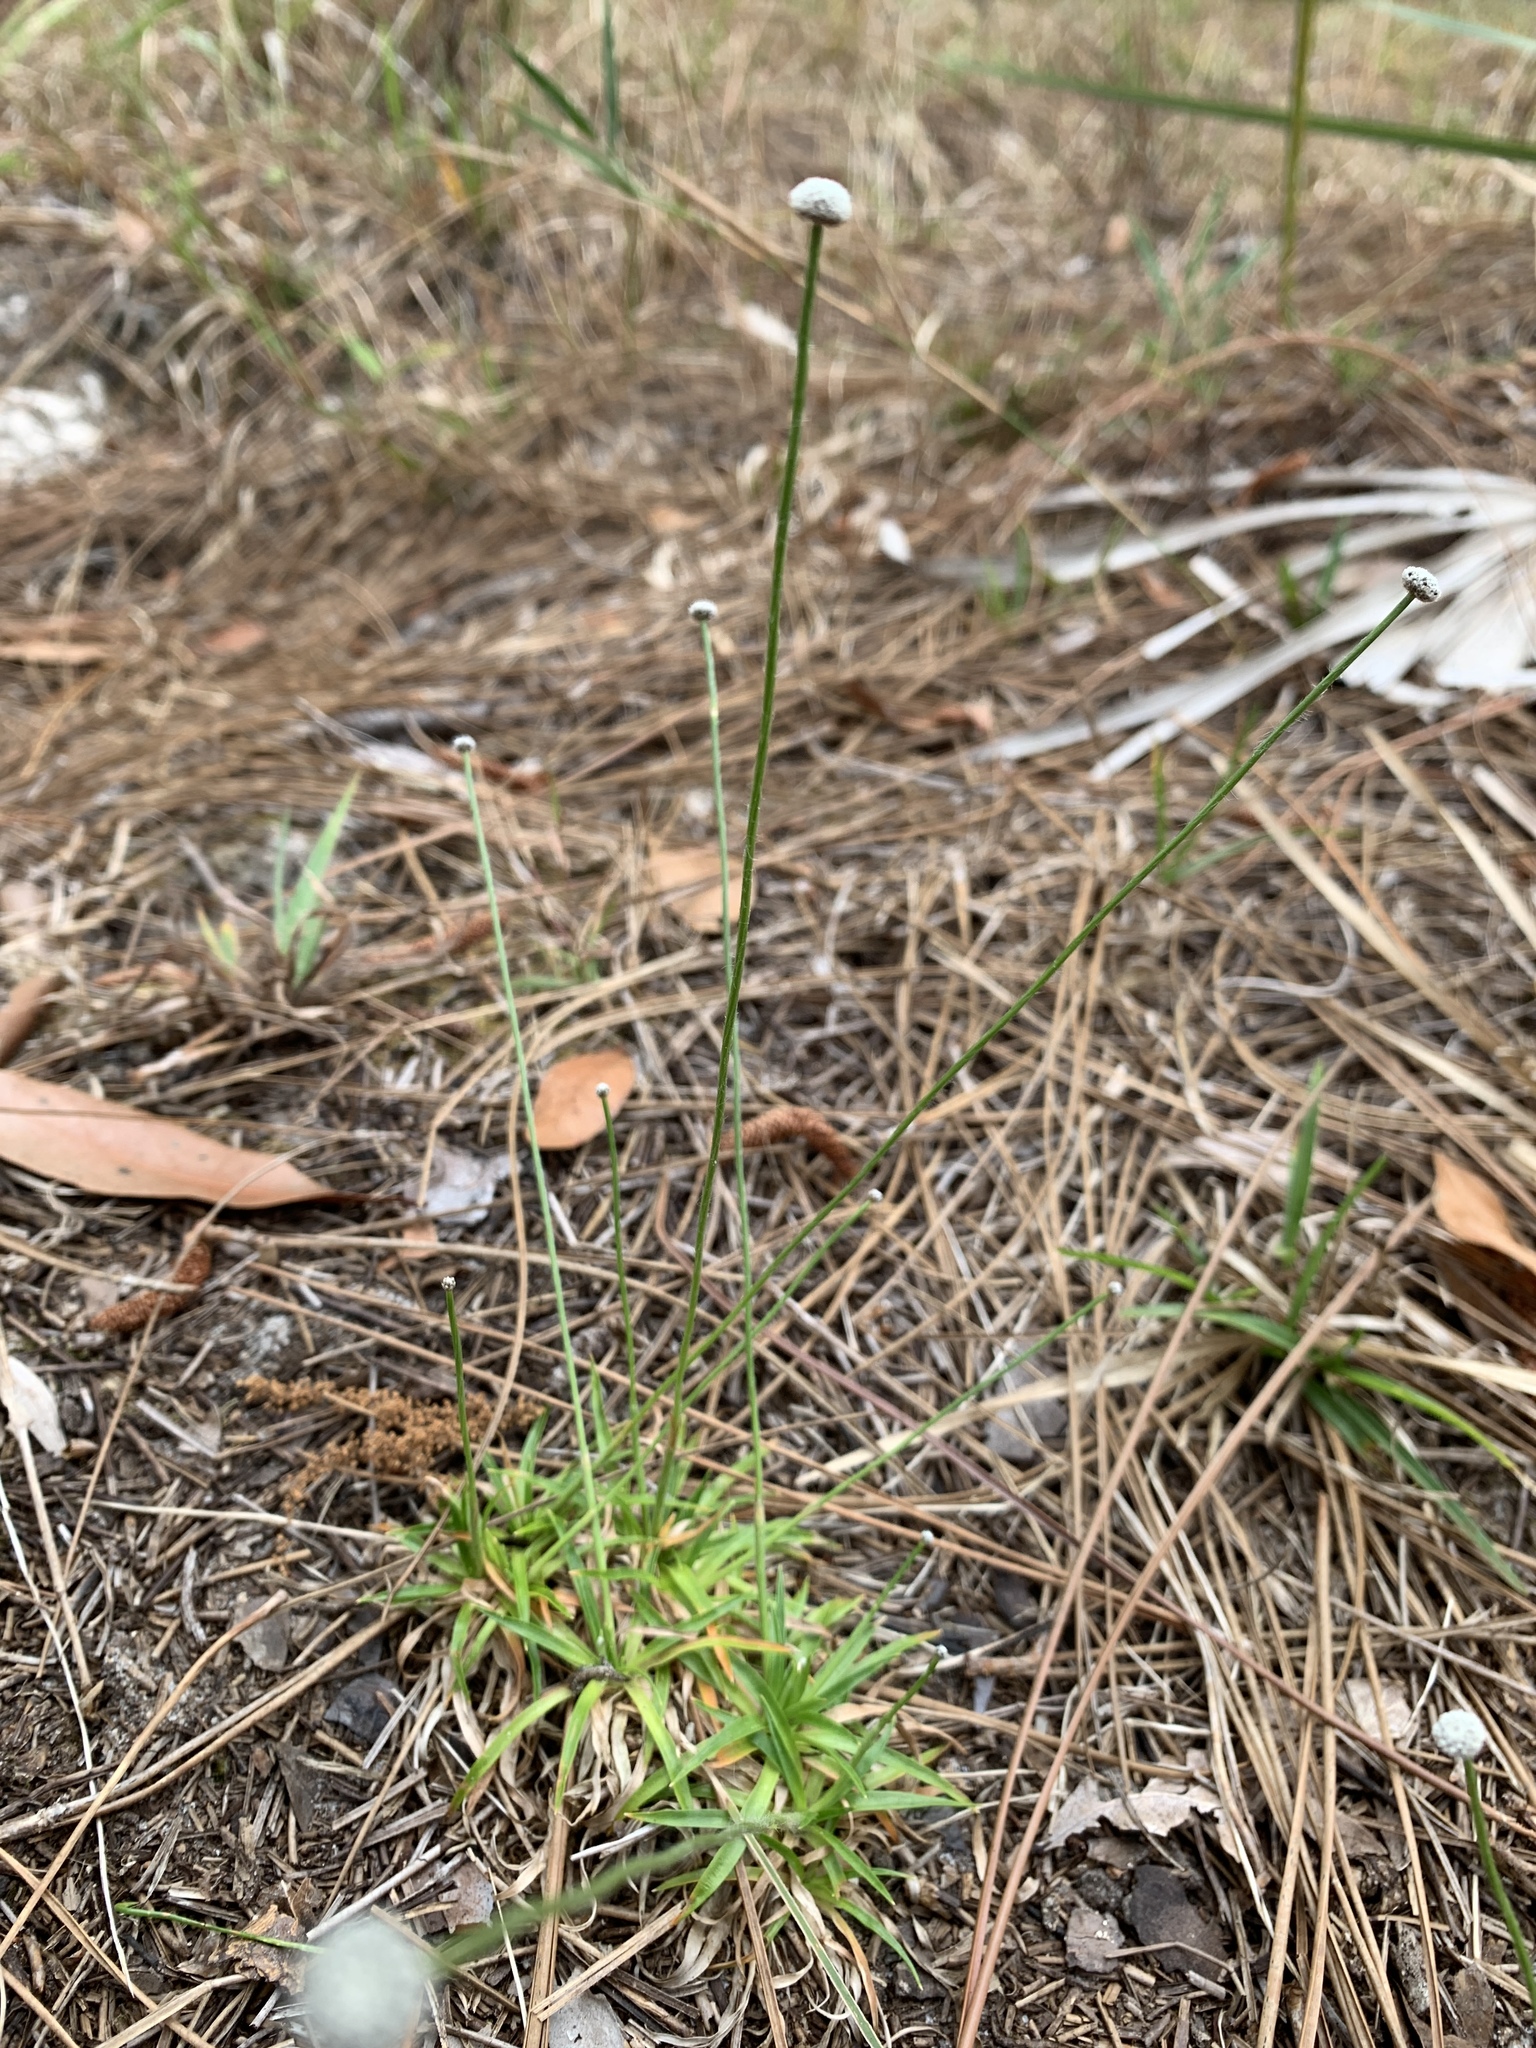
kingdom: Plantae
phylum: Tracheophyta
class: Liliopsida
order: Poales
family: Eriocaulaceae
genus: Paepalanthus
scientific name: Paepalanthus anceps
